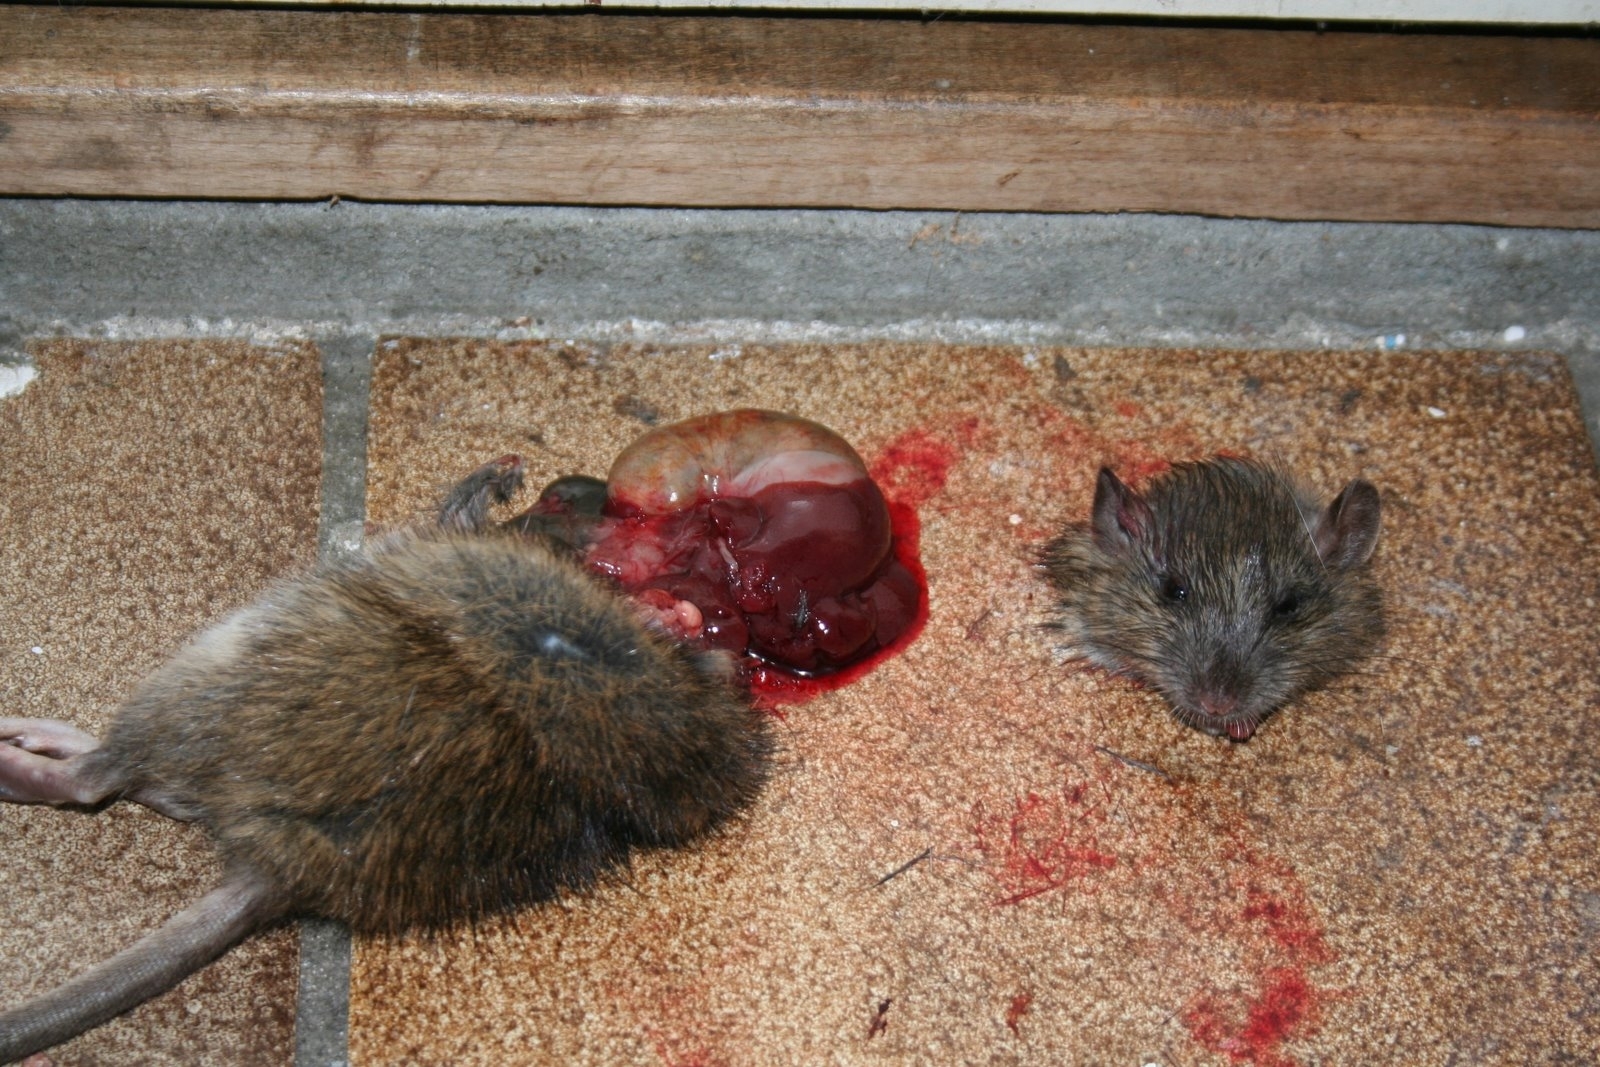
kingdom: Animalia
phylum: Chordata
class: Mammalia
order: Rodentia
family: Muridae
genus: Rattus
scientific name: Rattus norvegicus
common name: Brown rat
